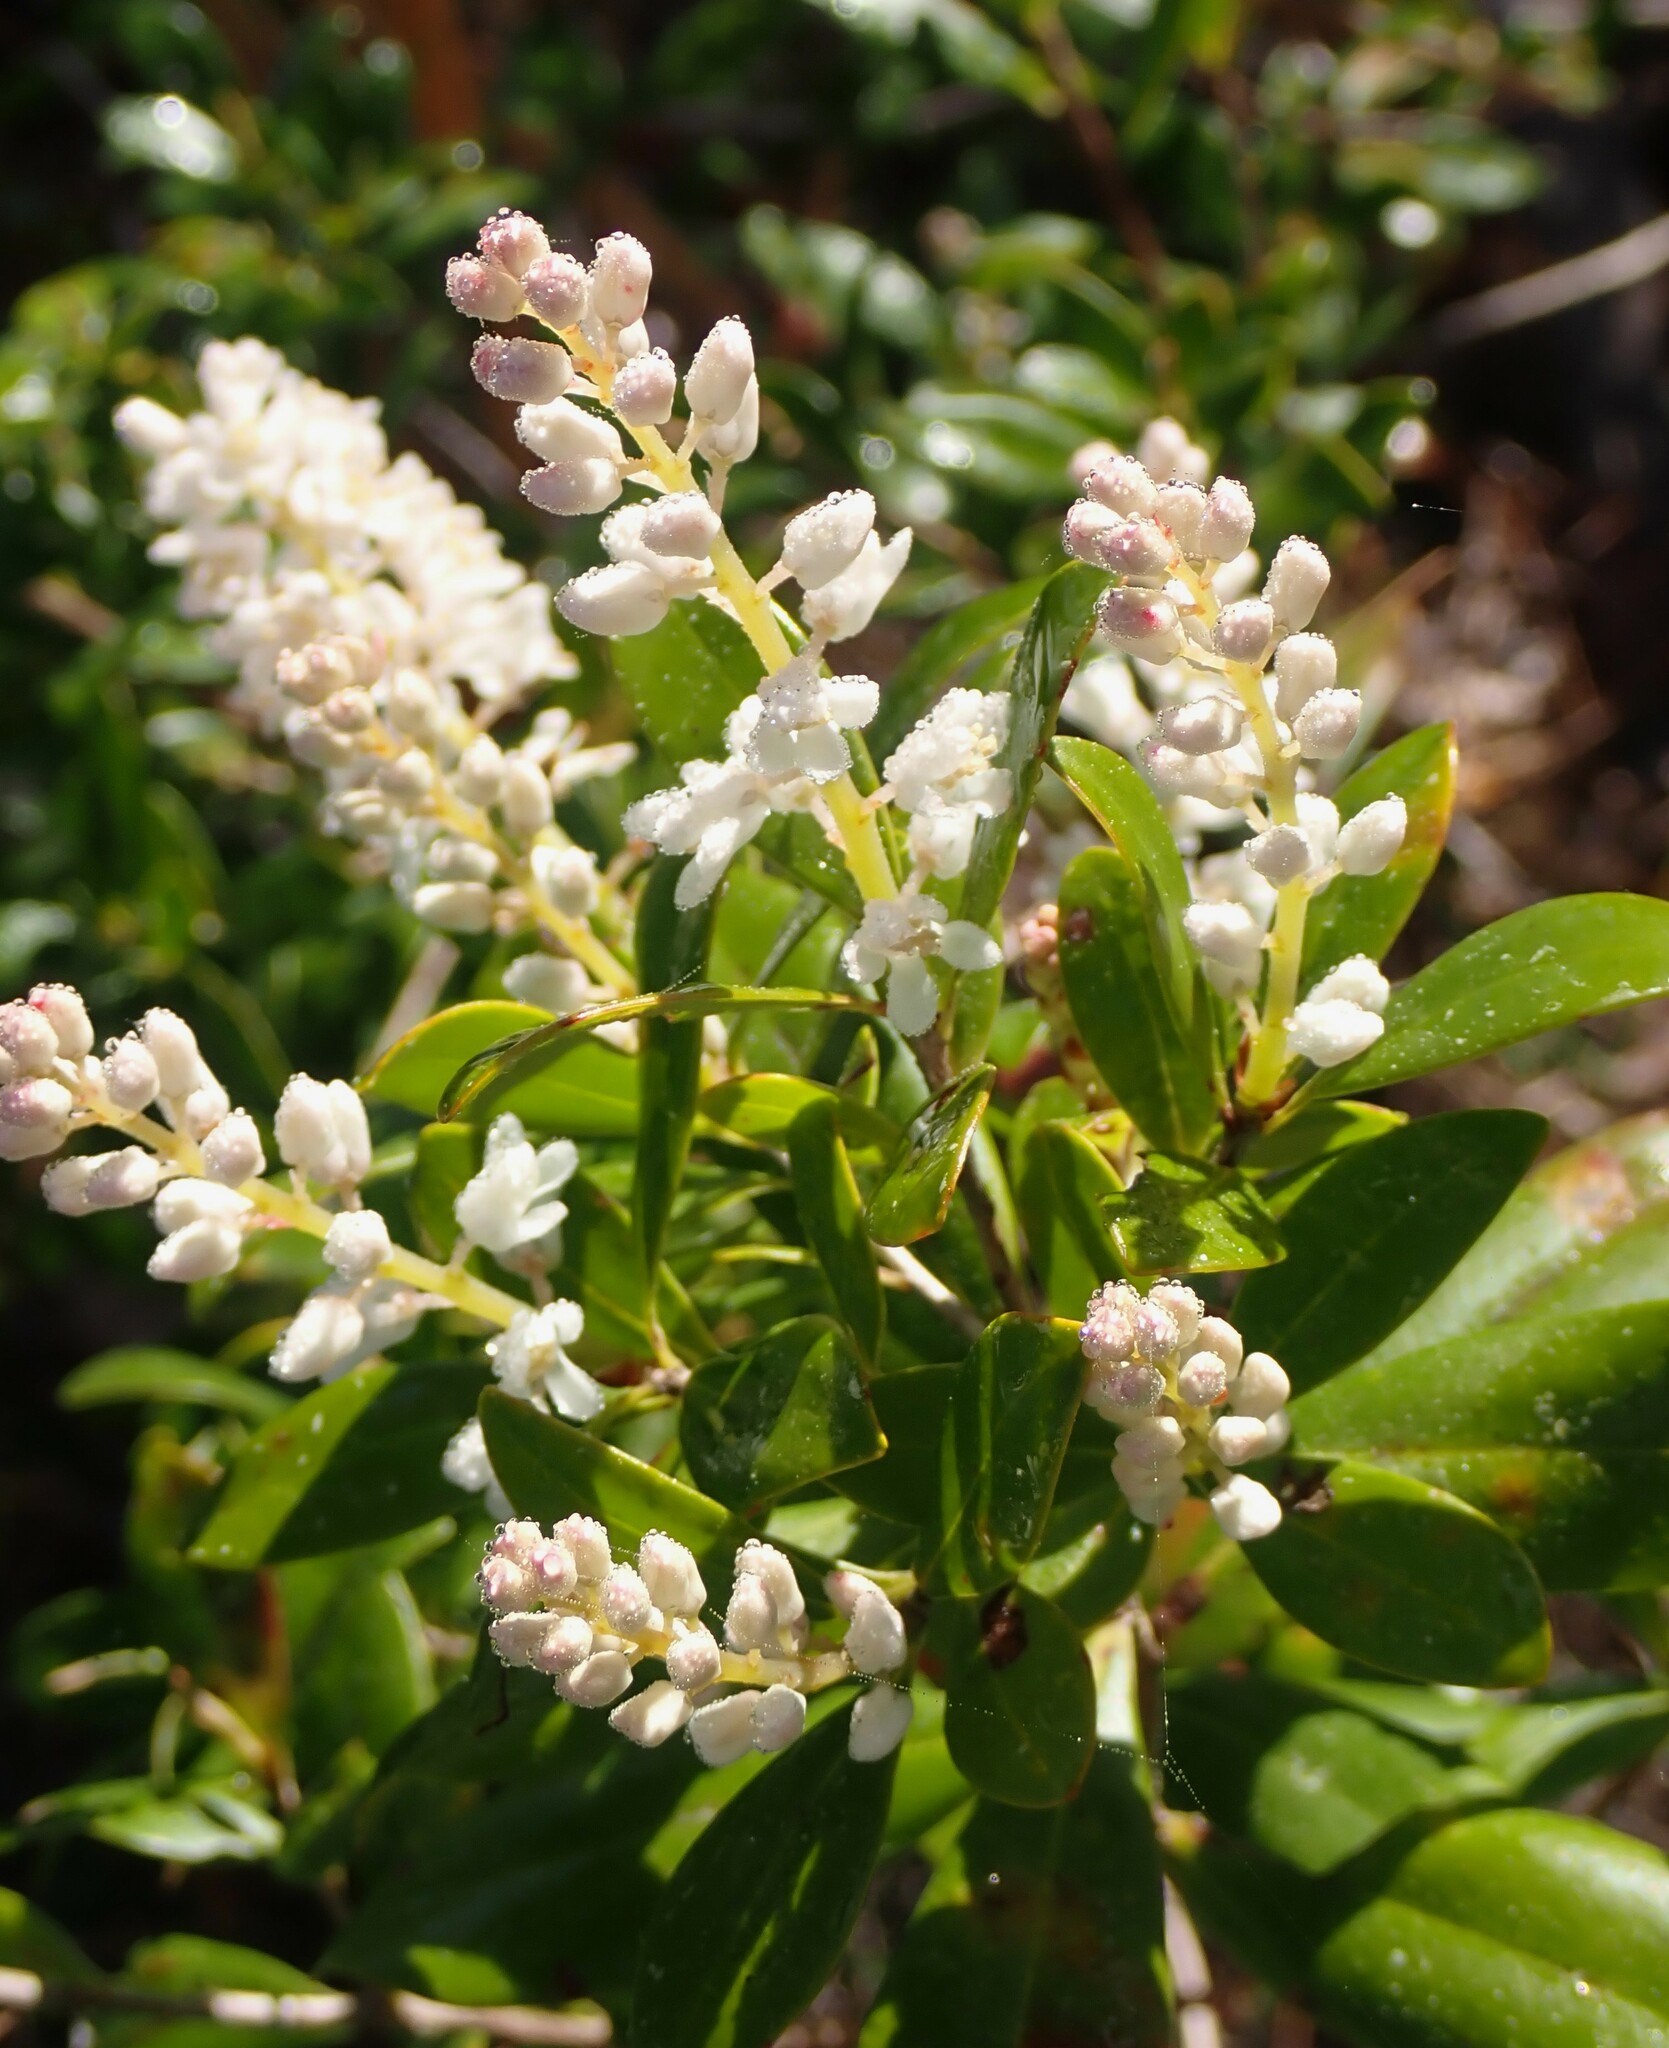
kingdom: Plantae
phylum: Tracheophyta
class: Magnoliopsida
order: Ericales
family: Cyrillaceae
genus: Cliftonia
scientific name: Cliftonia monophylla
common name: Titi
